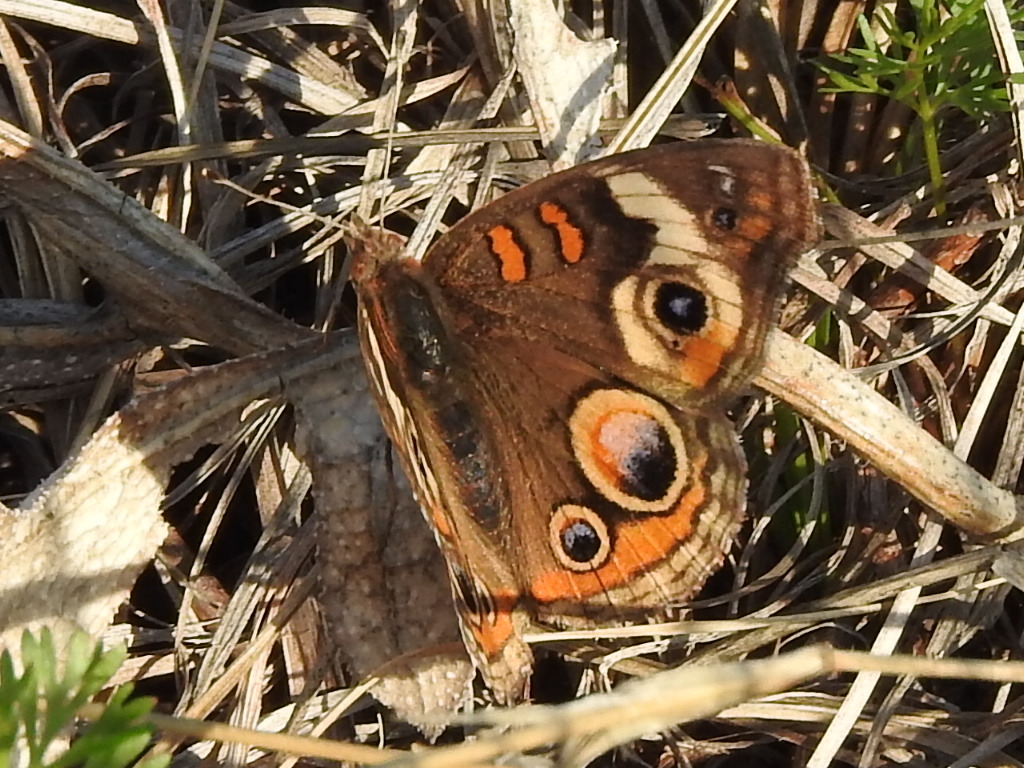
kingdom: Animalia
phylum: Arthropoda
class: Insecta
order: Lepidoptera
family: Nymphalidae
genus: Junonia
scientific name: Junonia coenia
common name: Common buckeye
